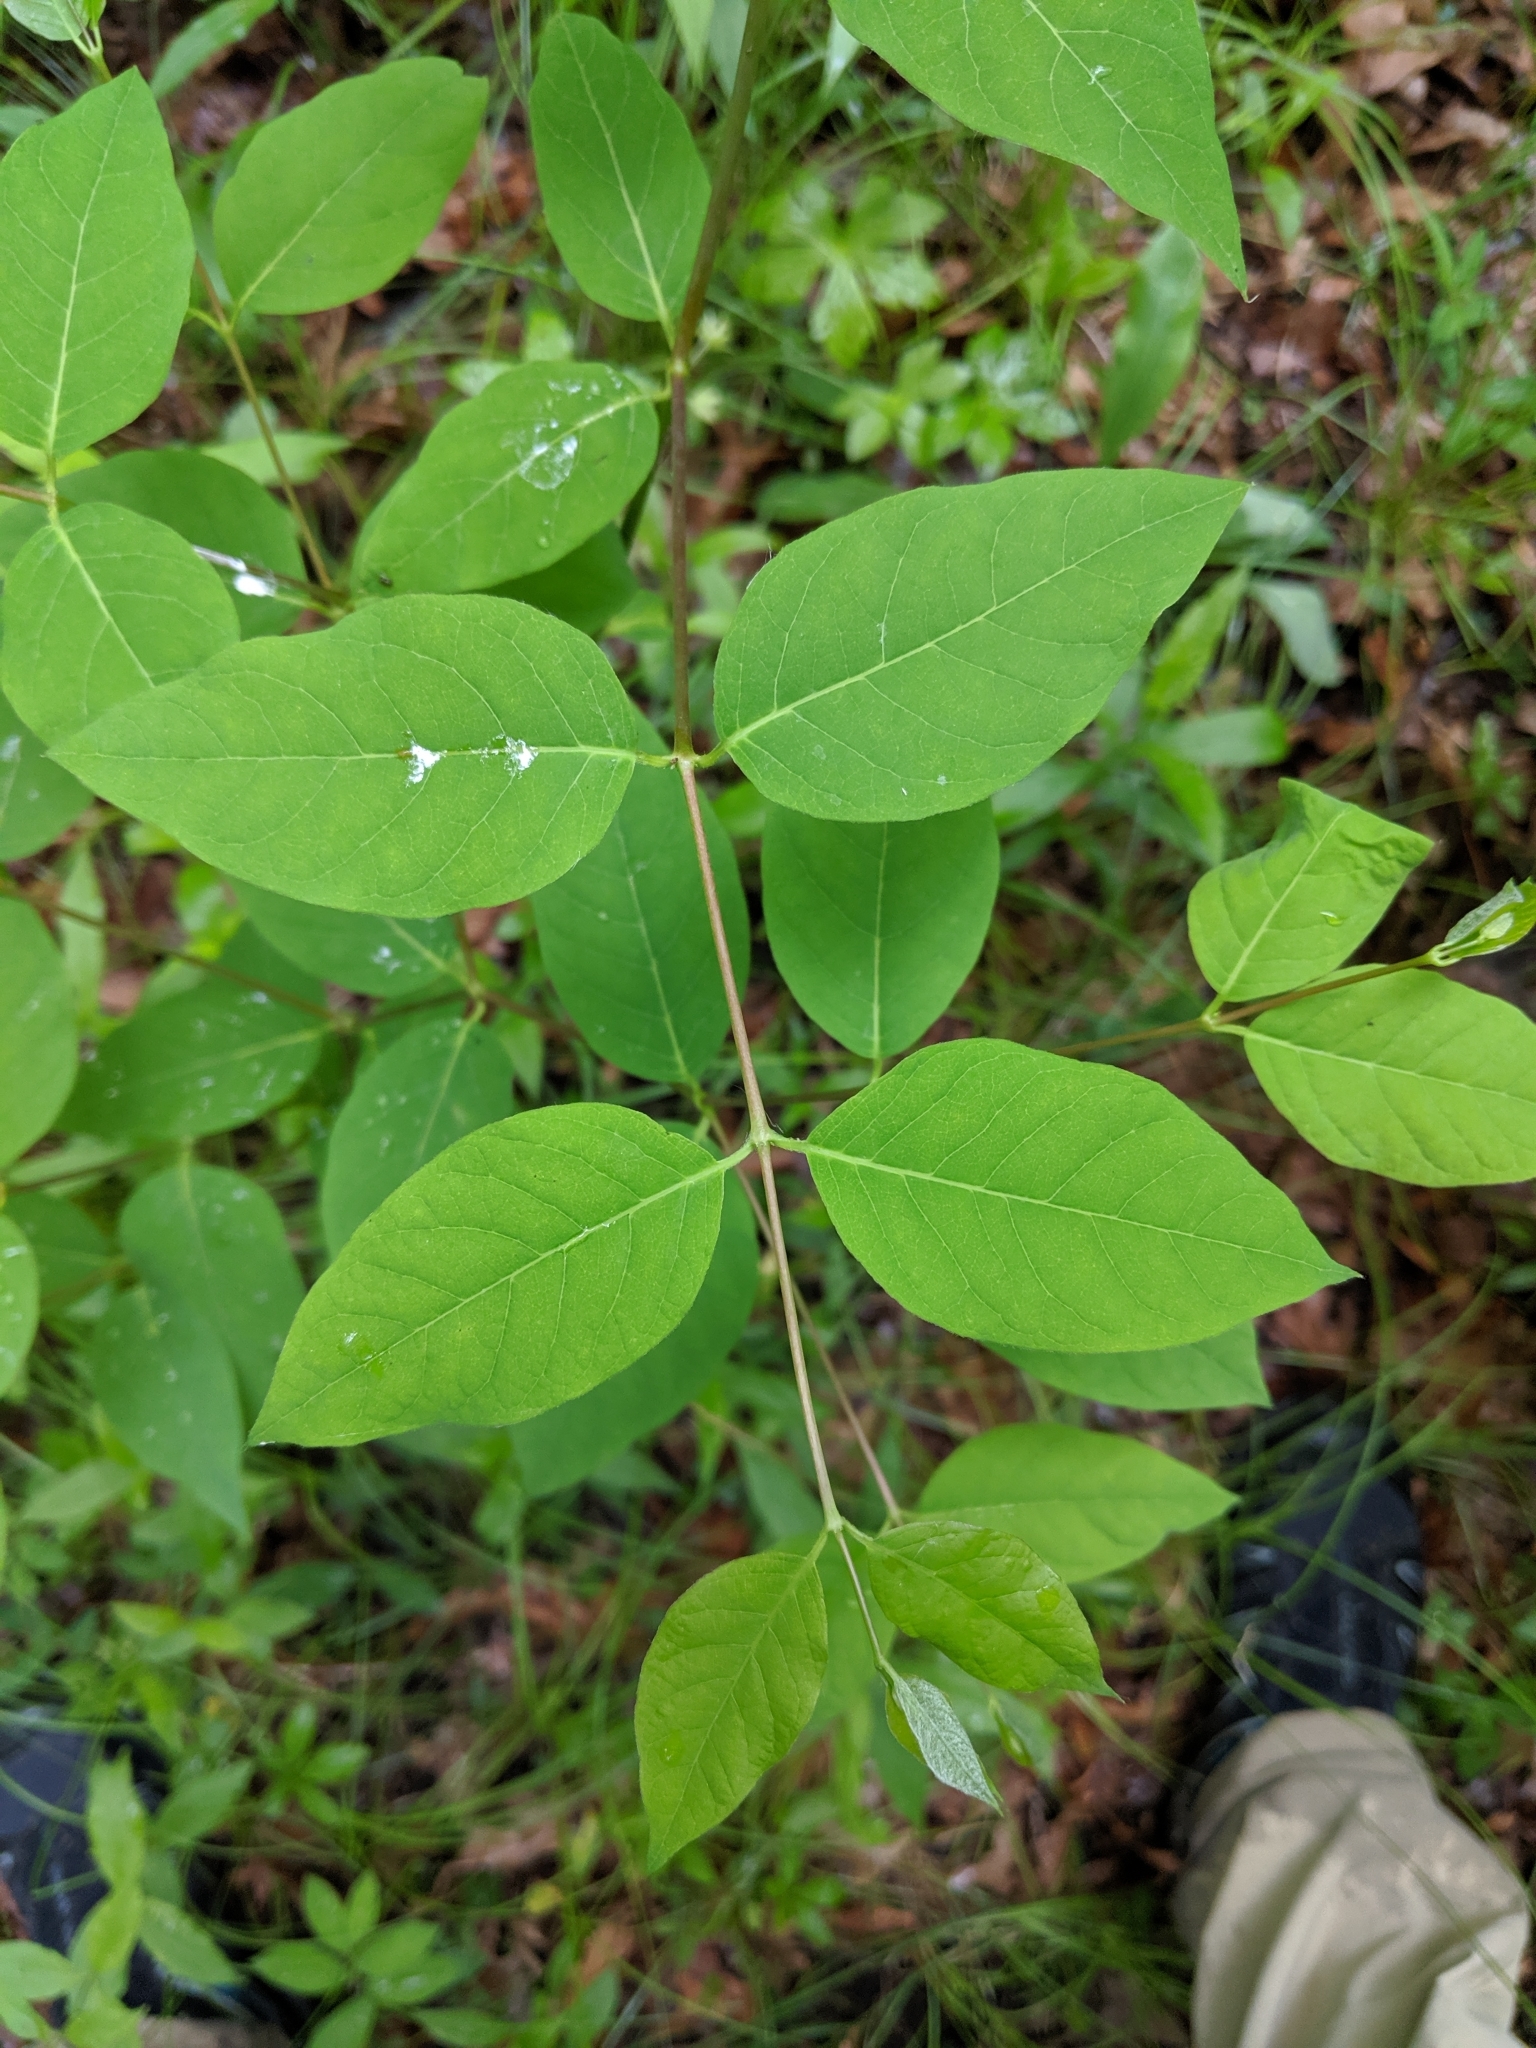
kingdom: Plantae
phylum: Tracheophyta
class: Magnoliopsida
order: Gentianales
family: Apocynaceae
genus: Apocynum
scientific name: Apocynum androsaemifolium
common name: Spreading dogbane
